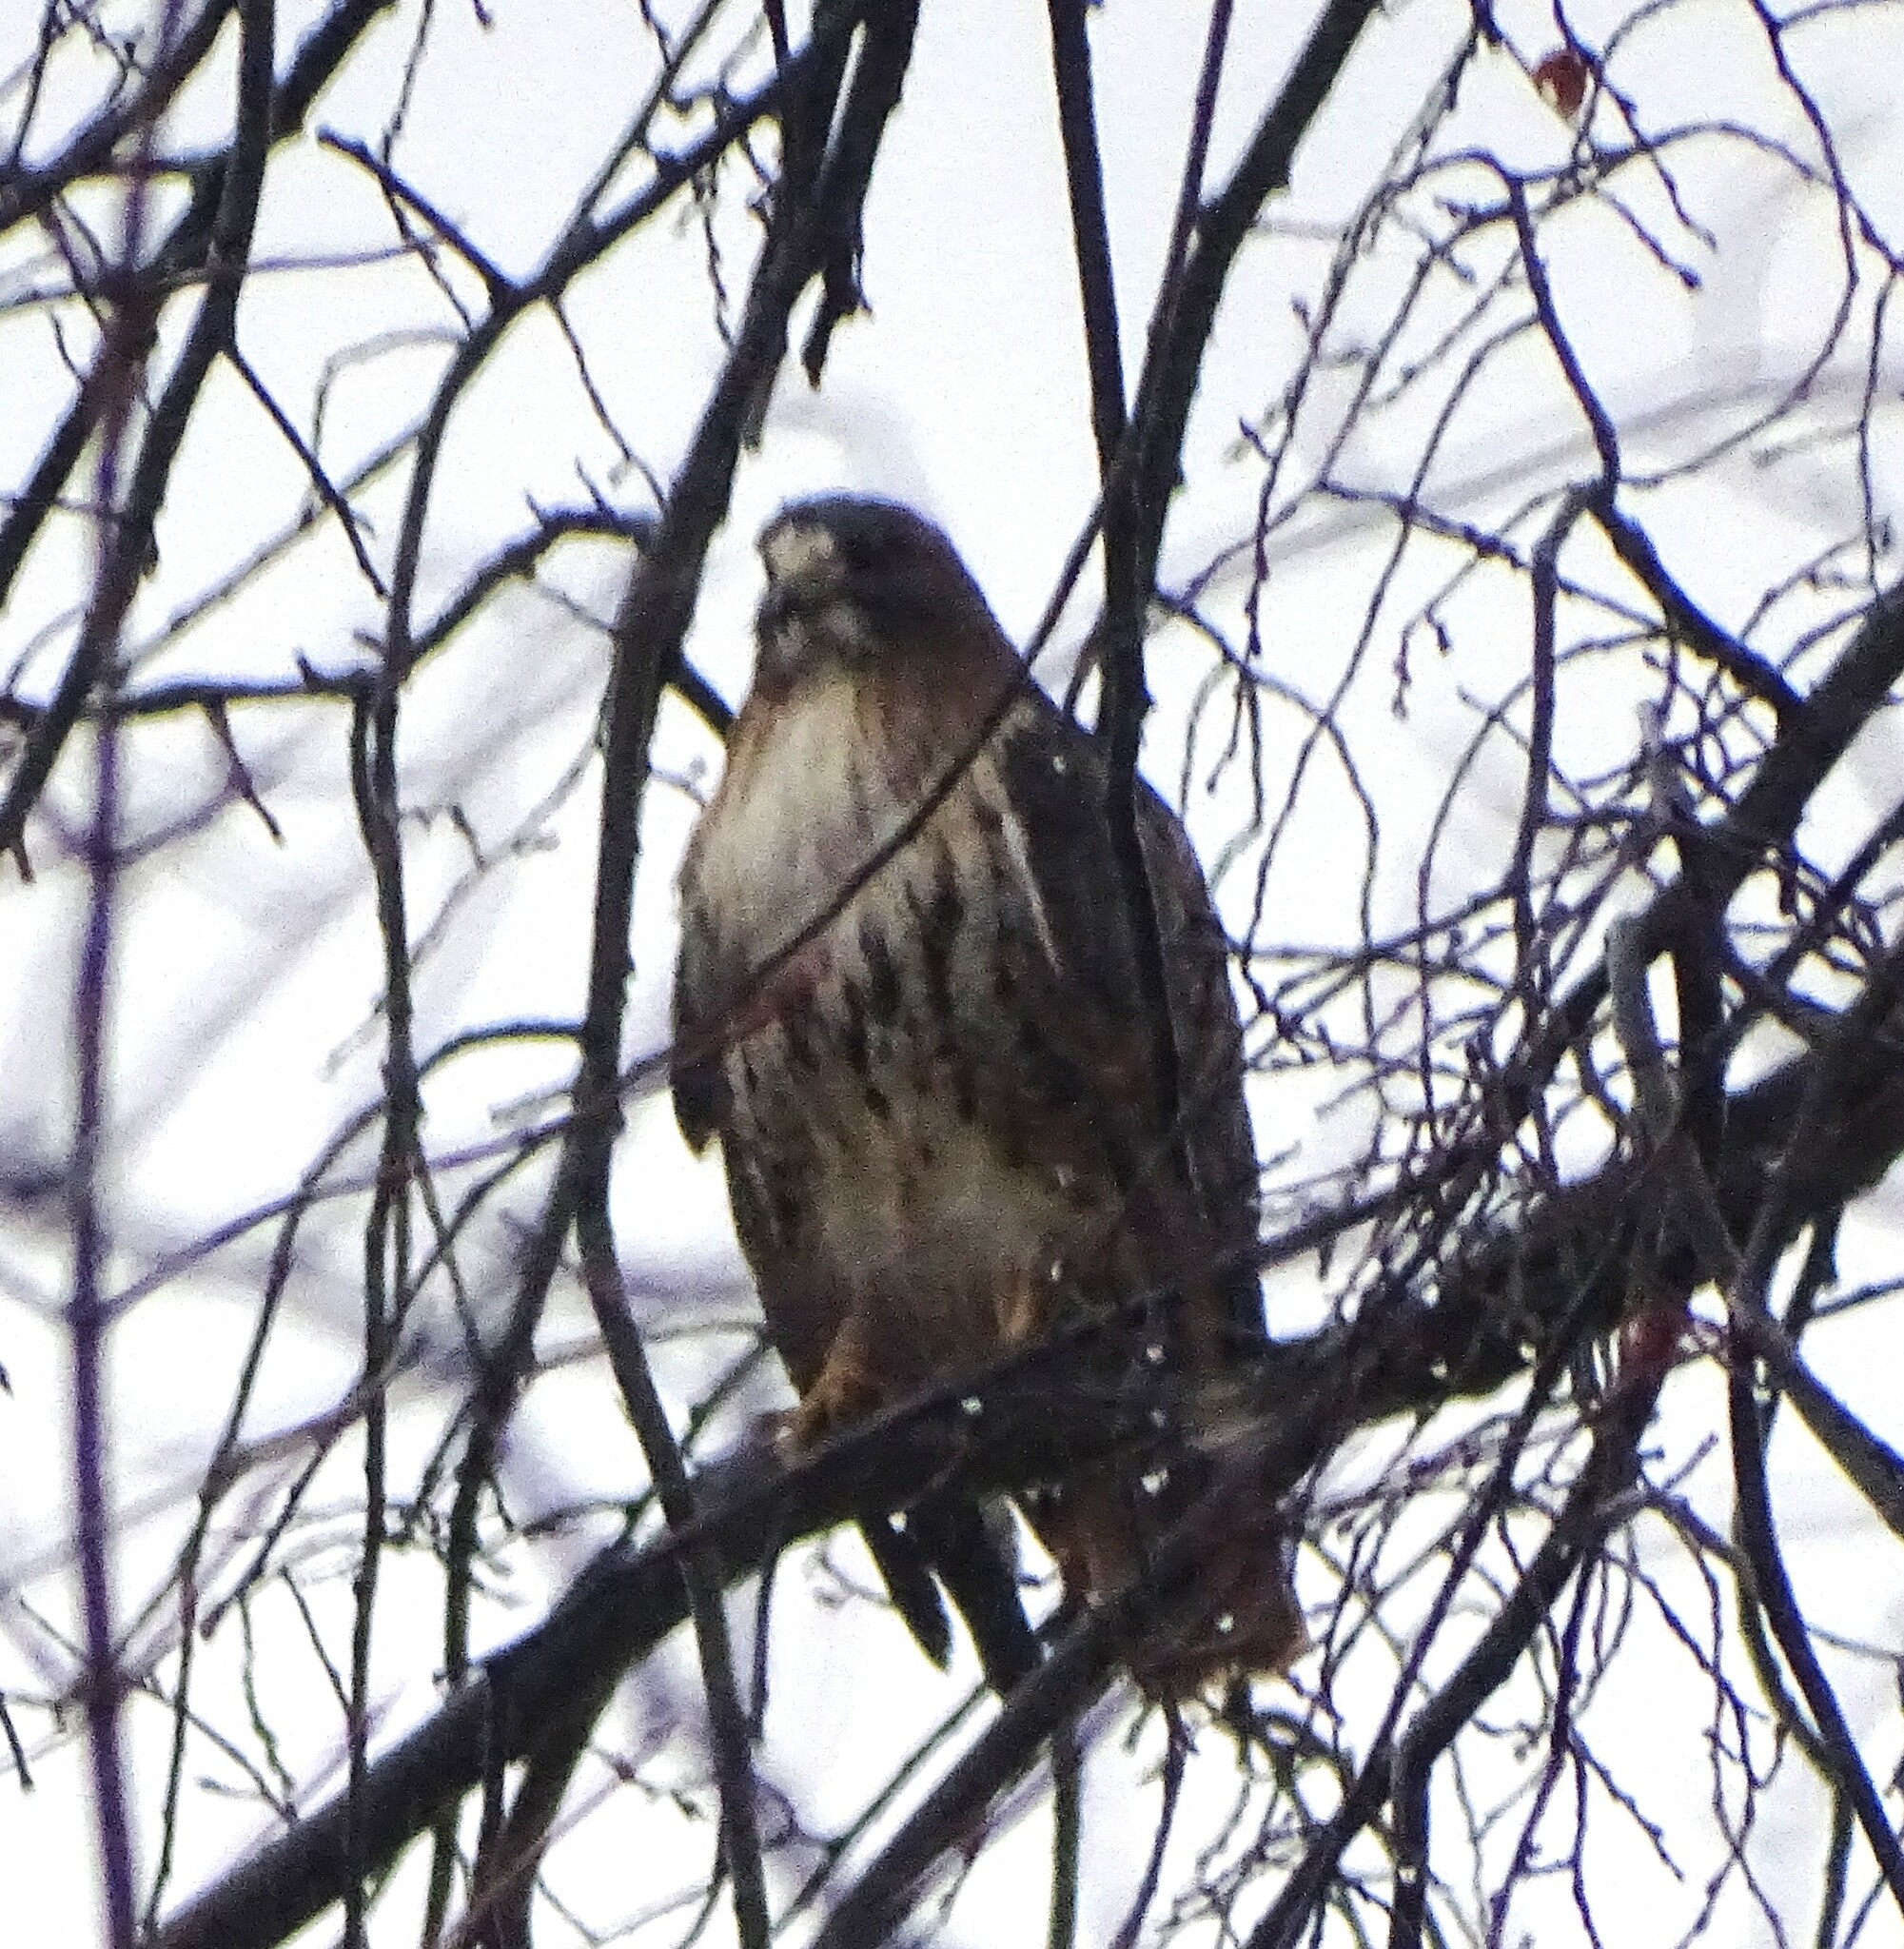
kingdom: Animalia
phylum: Chordata
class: Aves
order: Accipitriformes
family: Accipitridae
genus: Buteo
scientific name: Buteo jamaicensis
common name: Red-tailed hawk
